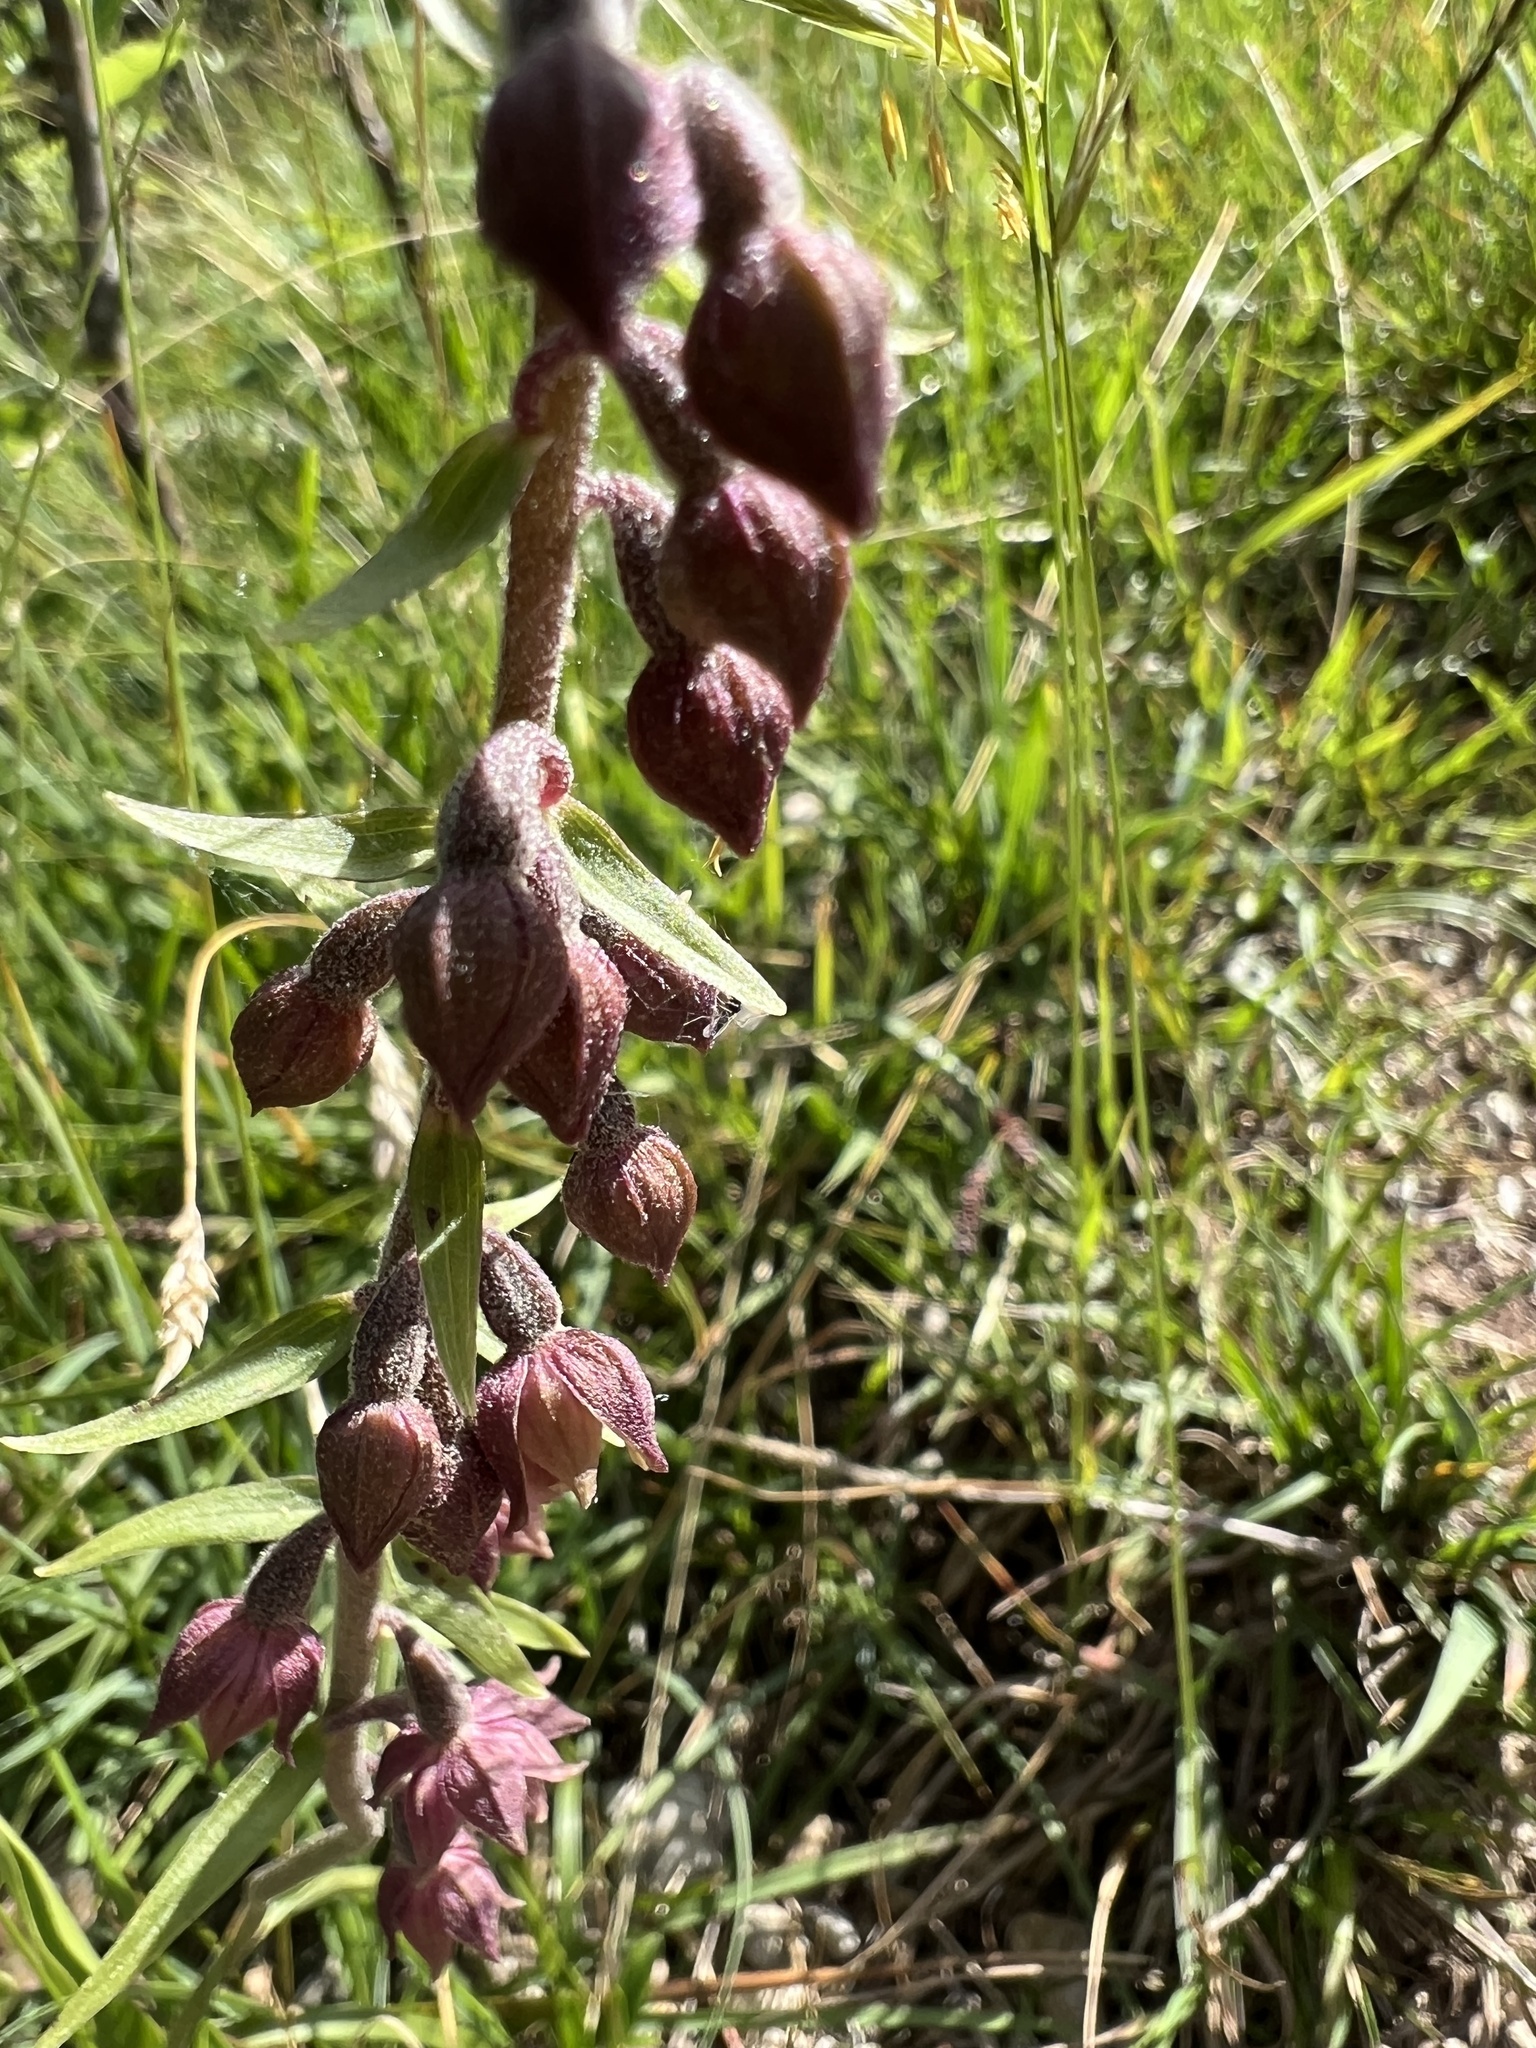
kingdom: Plantae
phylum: Tracheophyta
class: Liliopsida
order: Asparagales
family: Orchidaceae
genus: Epipactis
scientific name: Epipactis atrorubens
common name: Dark-red helleborine
